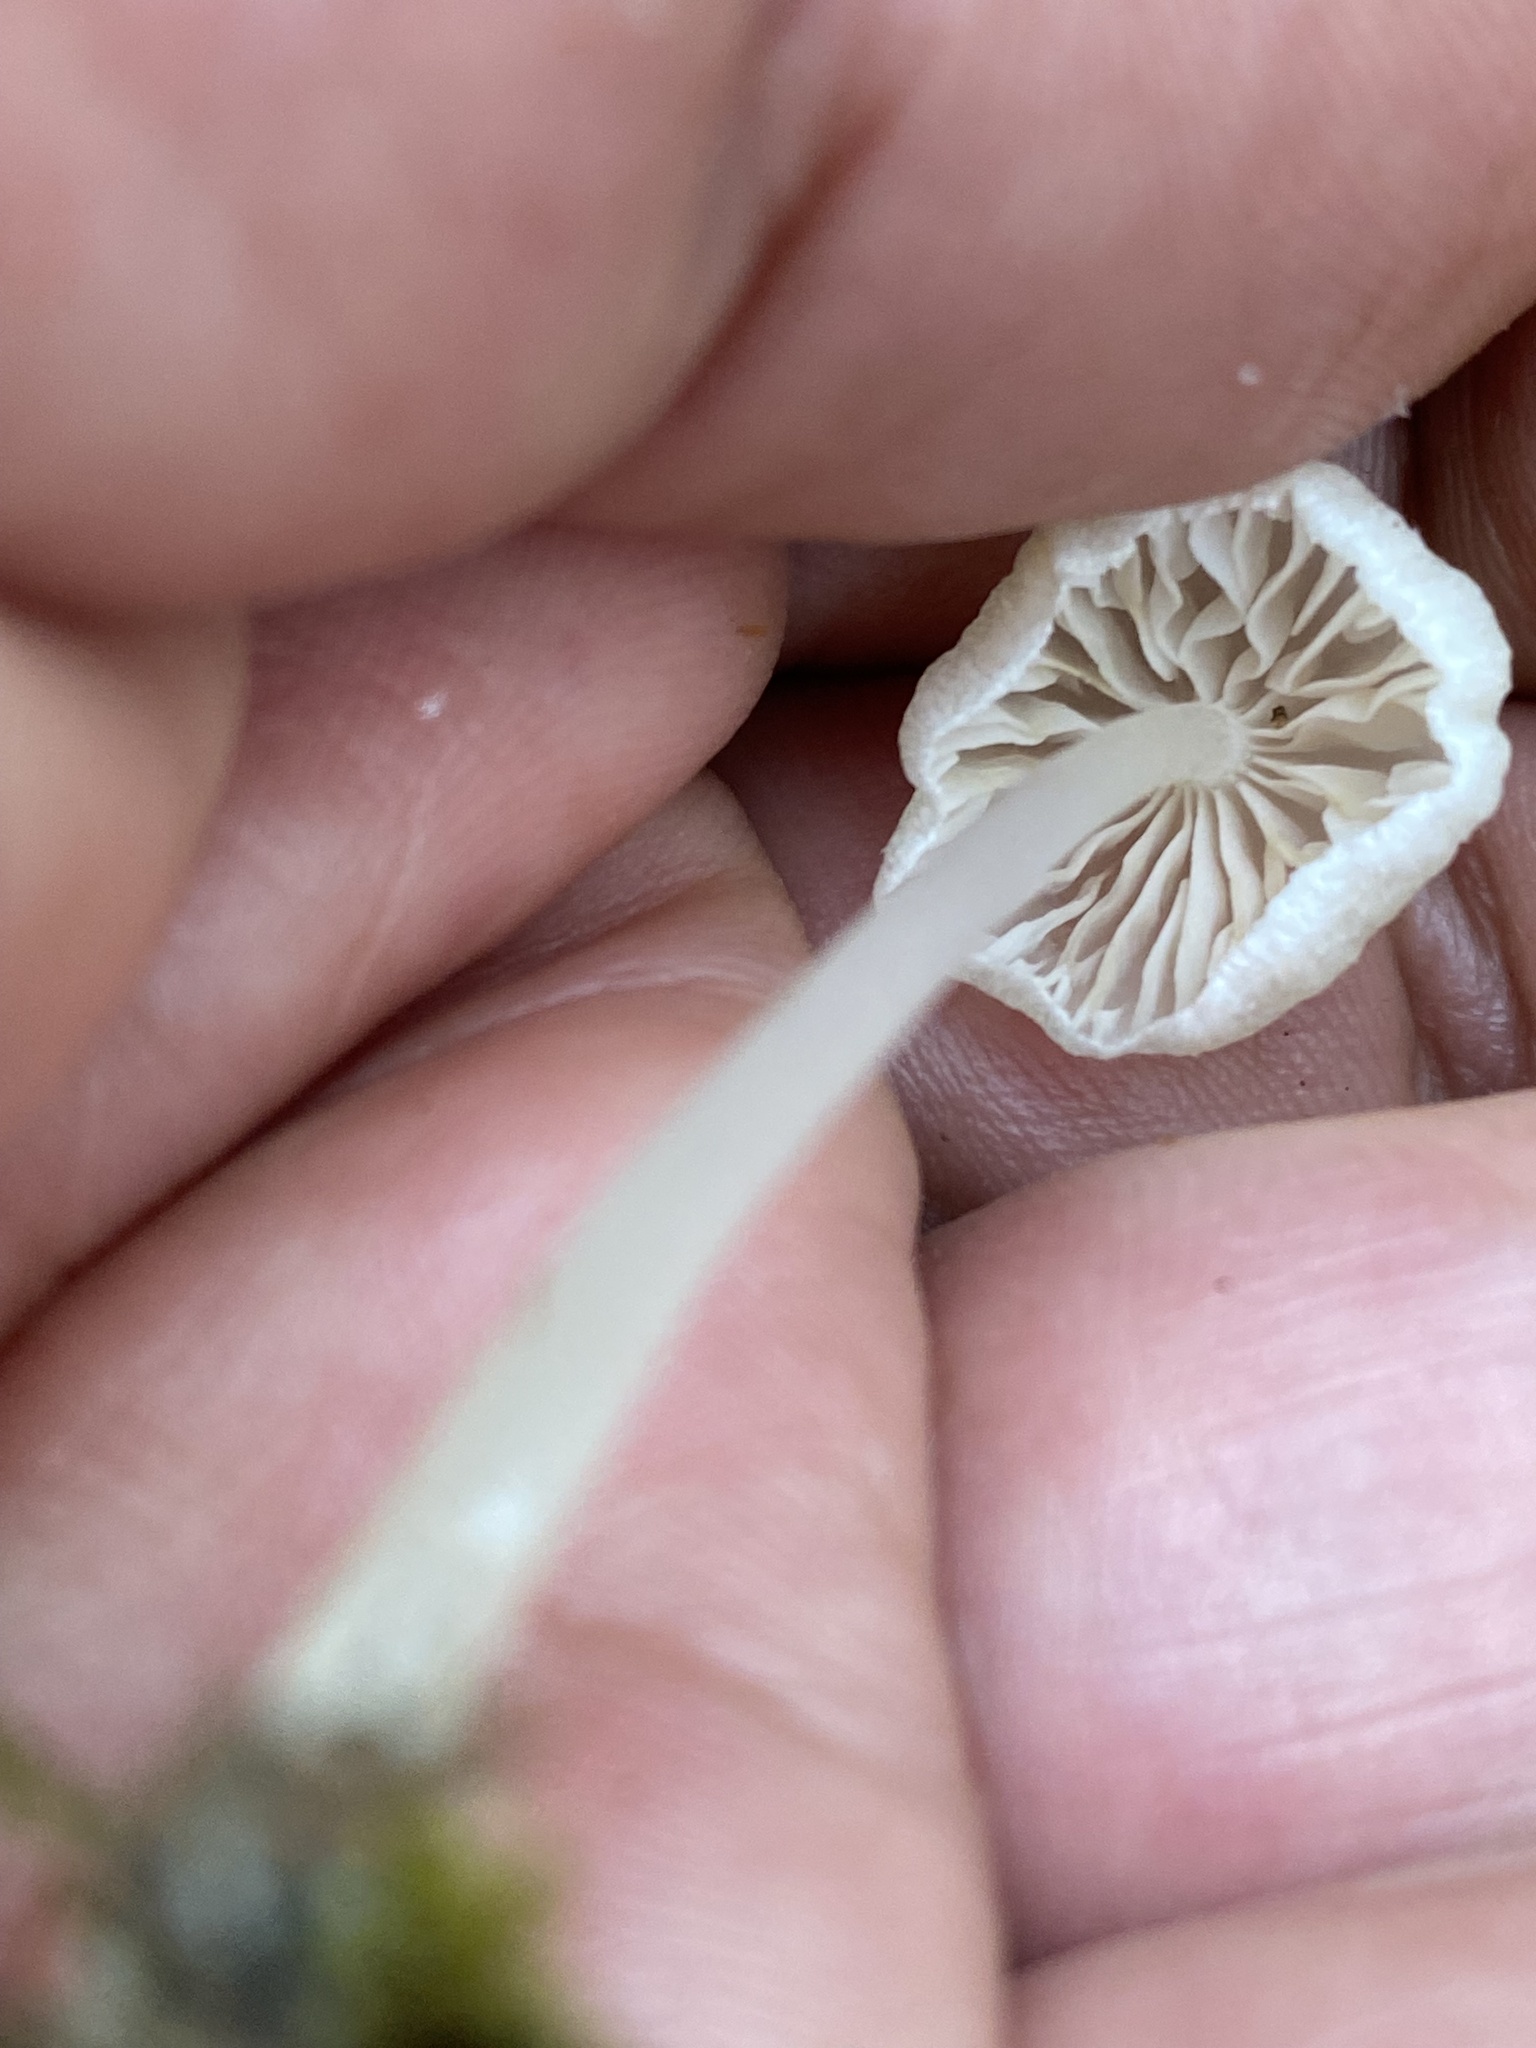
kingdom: Fungi
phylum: Basidiomycota
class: Agaricomycetes
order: Agaricales
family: Entolomataceae
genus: Entoloma
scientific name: Entoloma stylophorum
